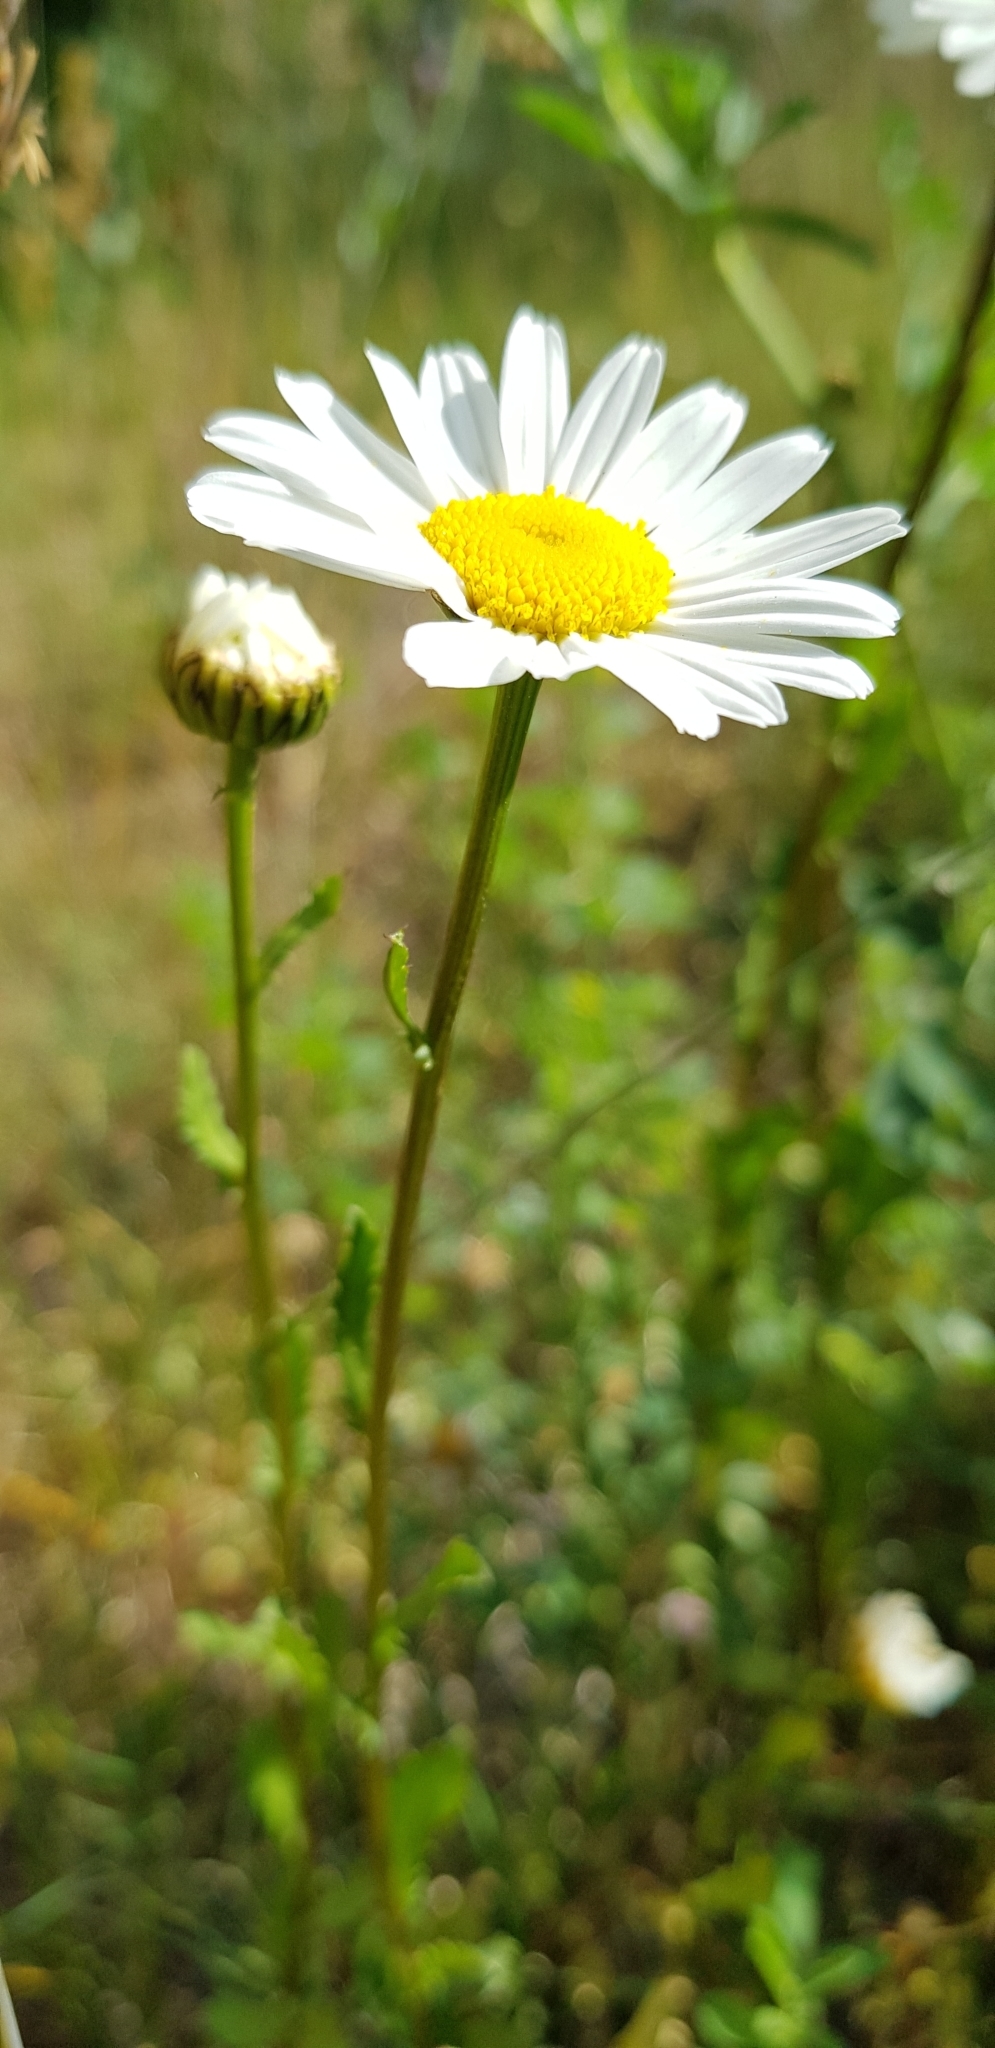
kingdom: Plantae
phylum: Tracheophyta
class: Magnoliopsida
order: Asterales
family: Asteraceae
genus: Leucanthemum
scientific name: Leucanthemum vulgare
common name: Oxeye daisy
